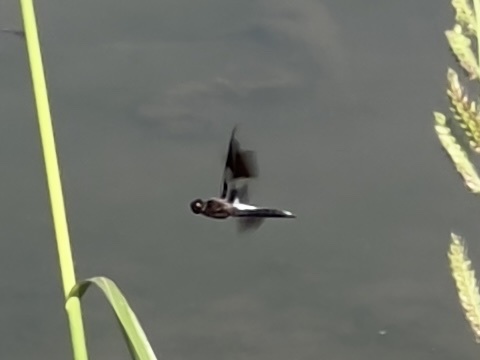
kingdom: Animalia
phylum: Arthropoda
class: Insecta
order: Odonata
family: Libellulidae
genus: Plathemis
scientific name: Plathemis lydia
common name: Common whitetail
